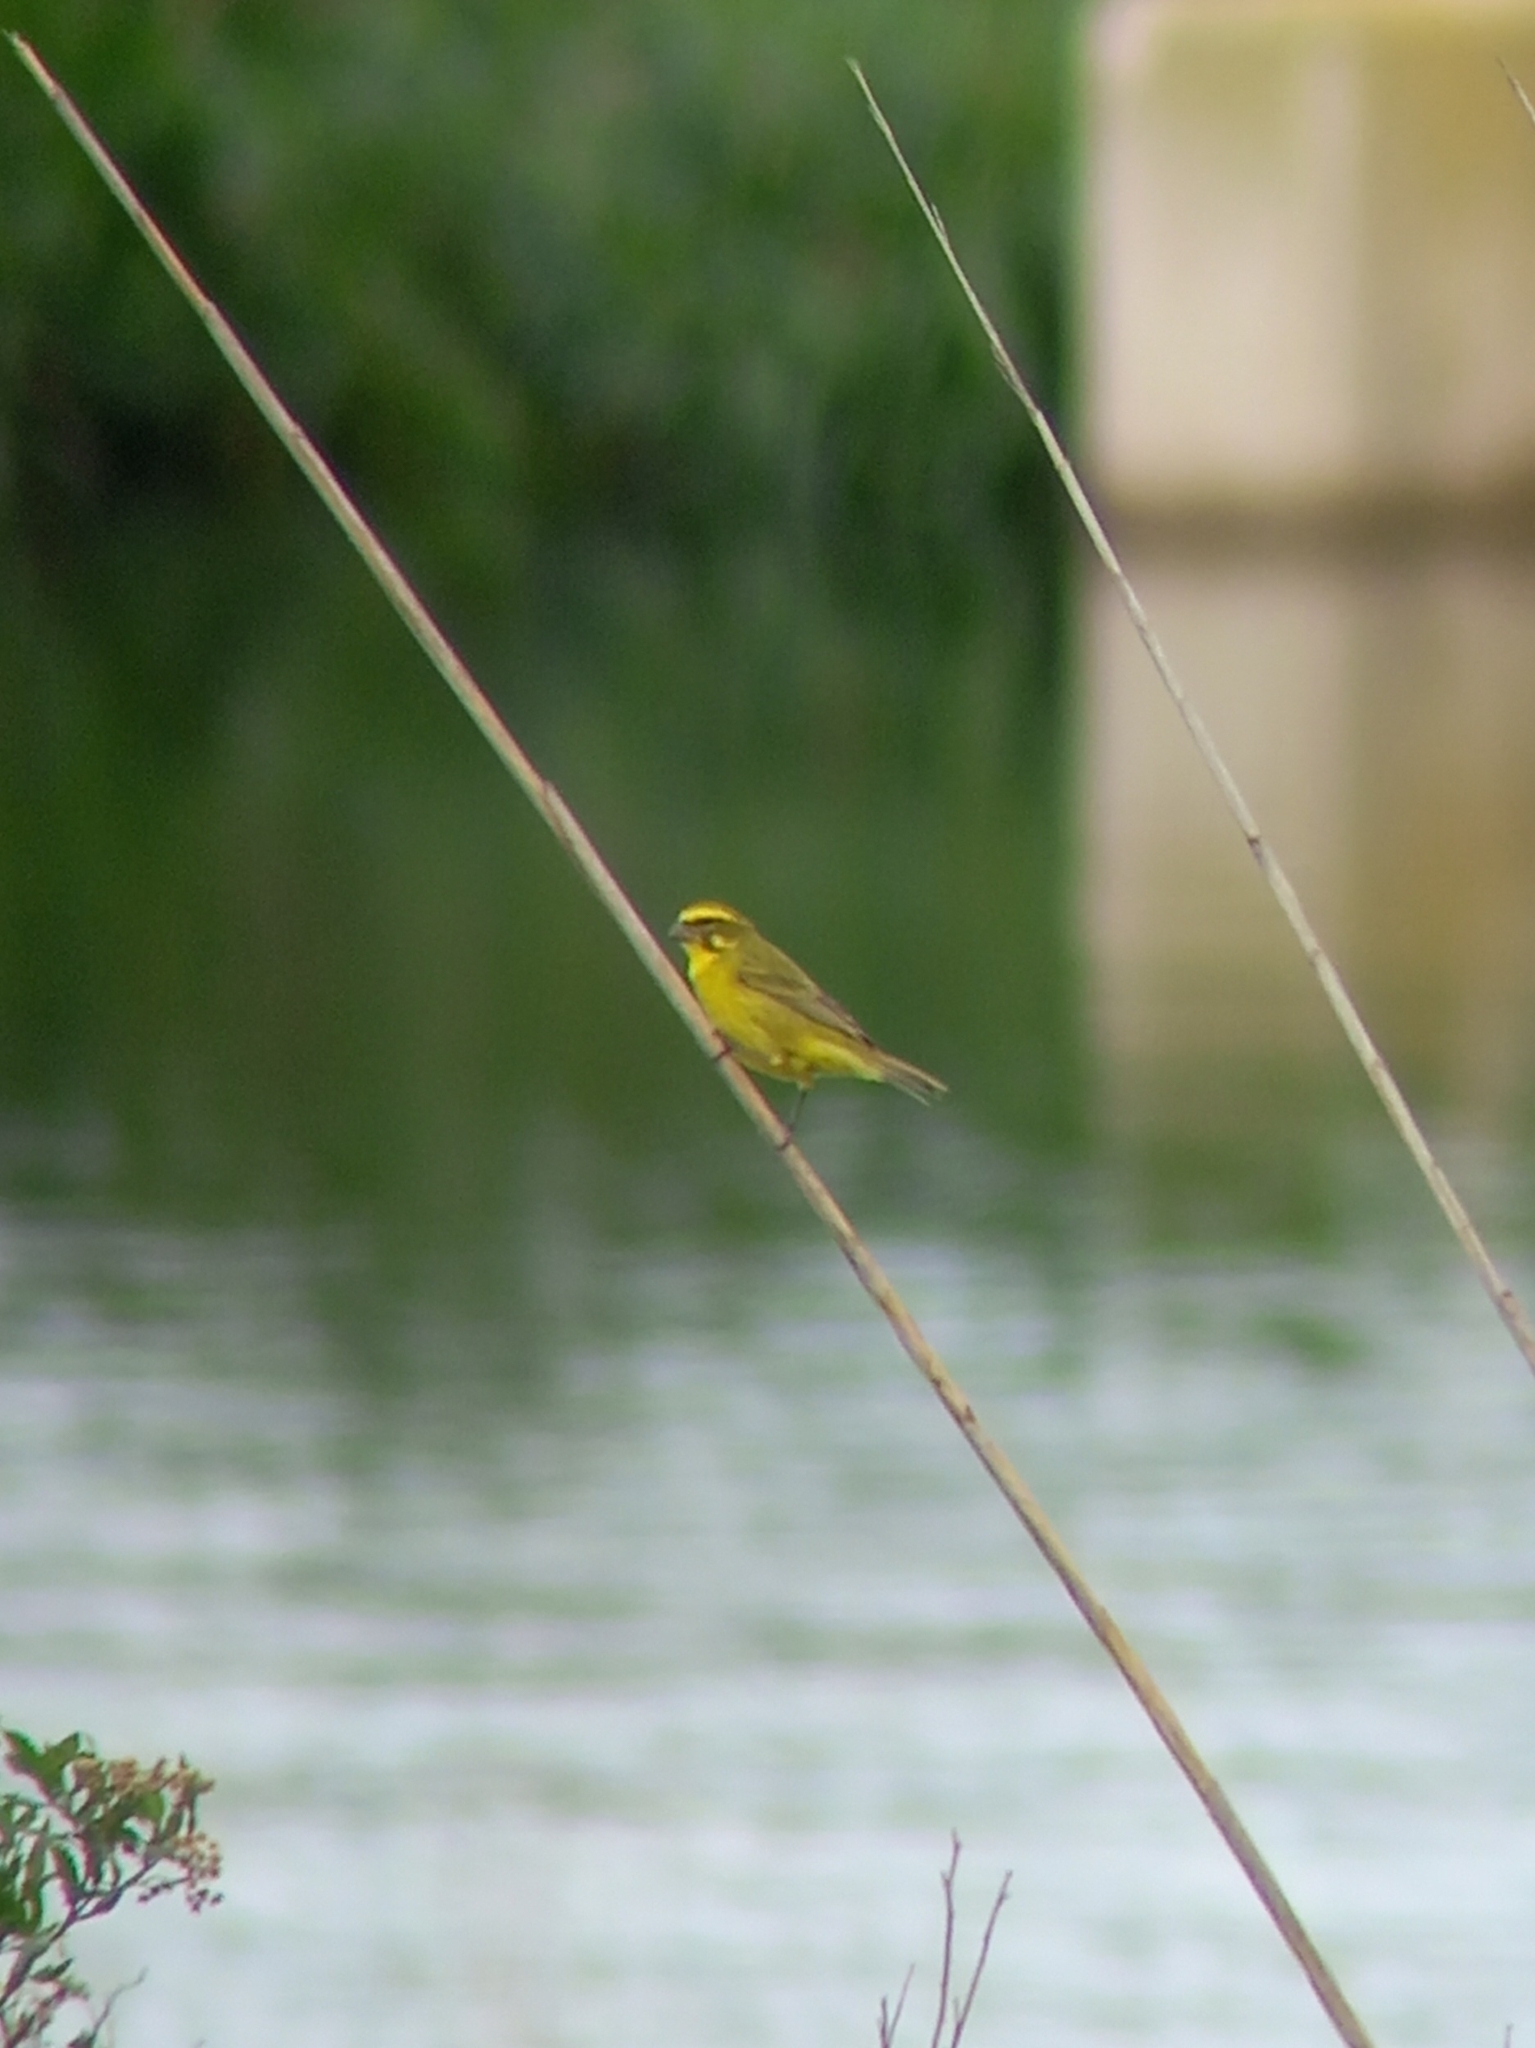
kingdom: Animalia
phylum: Chordata
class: Aves
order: Passeriformes
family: Fringillidae
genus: Crithagra
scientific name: Crithagra sulphurata
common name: Brimstone canary
